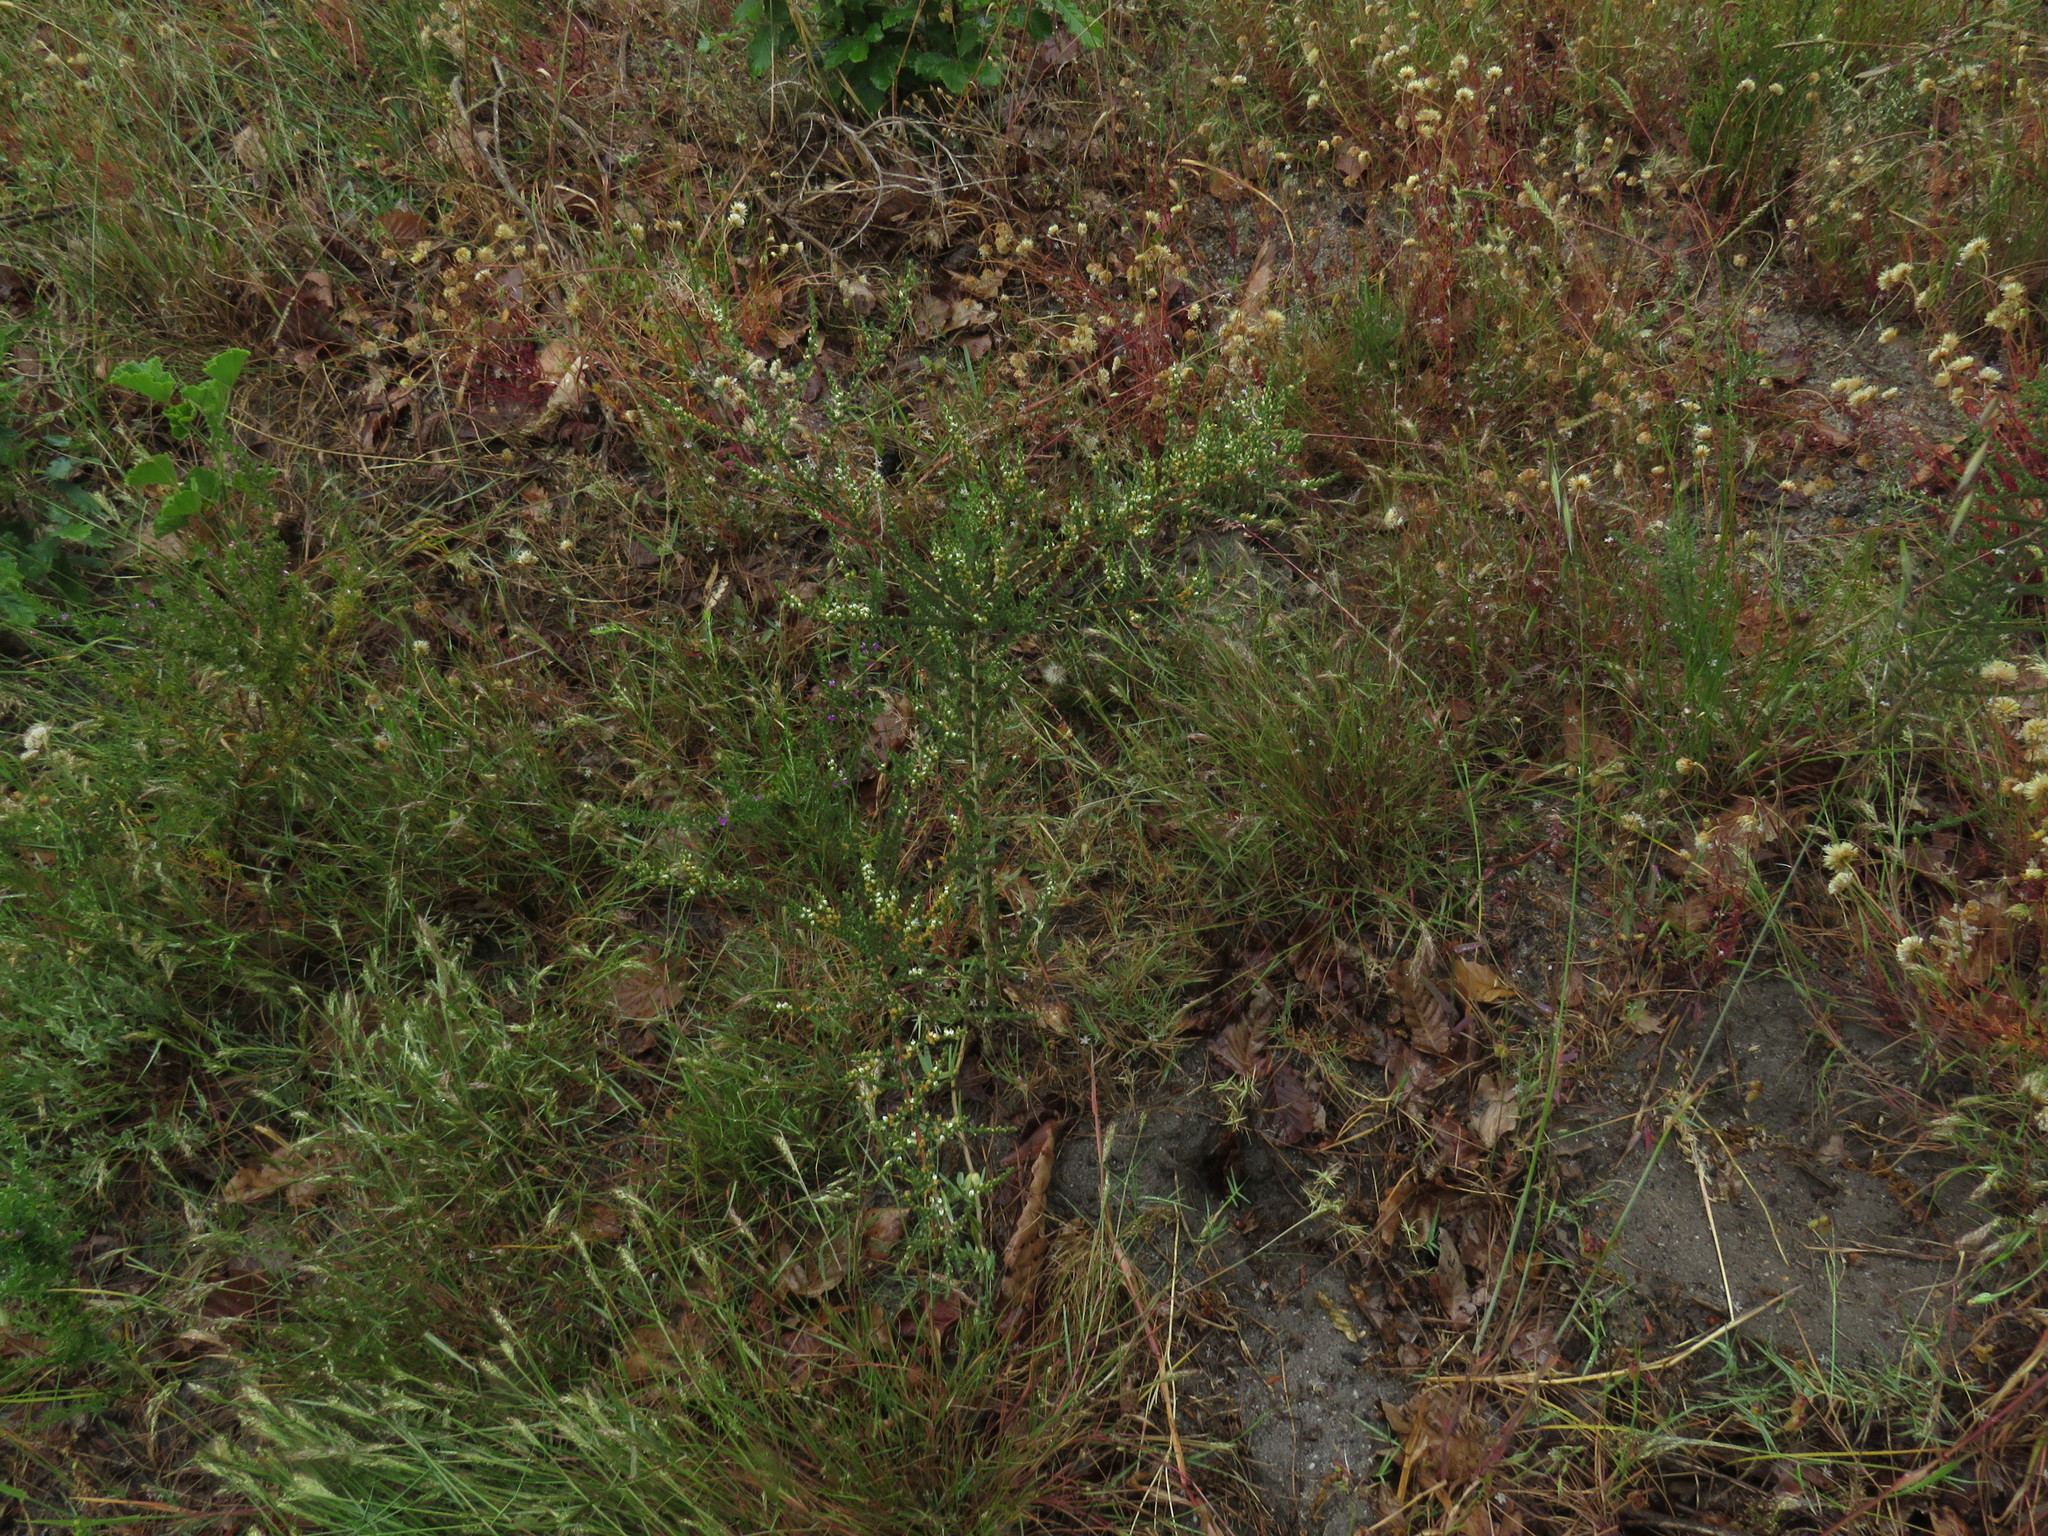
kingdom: Plantae
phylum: Tracheophyta
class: Magnoliopsida
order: Fabales
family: Fabaceae
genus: Aspalathus
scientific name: Aspalathus hispida
